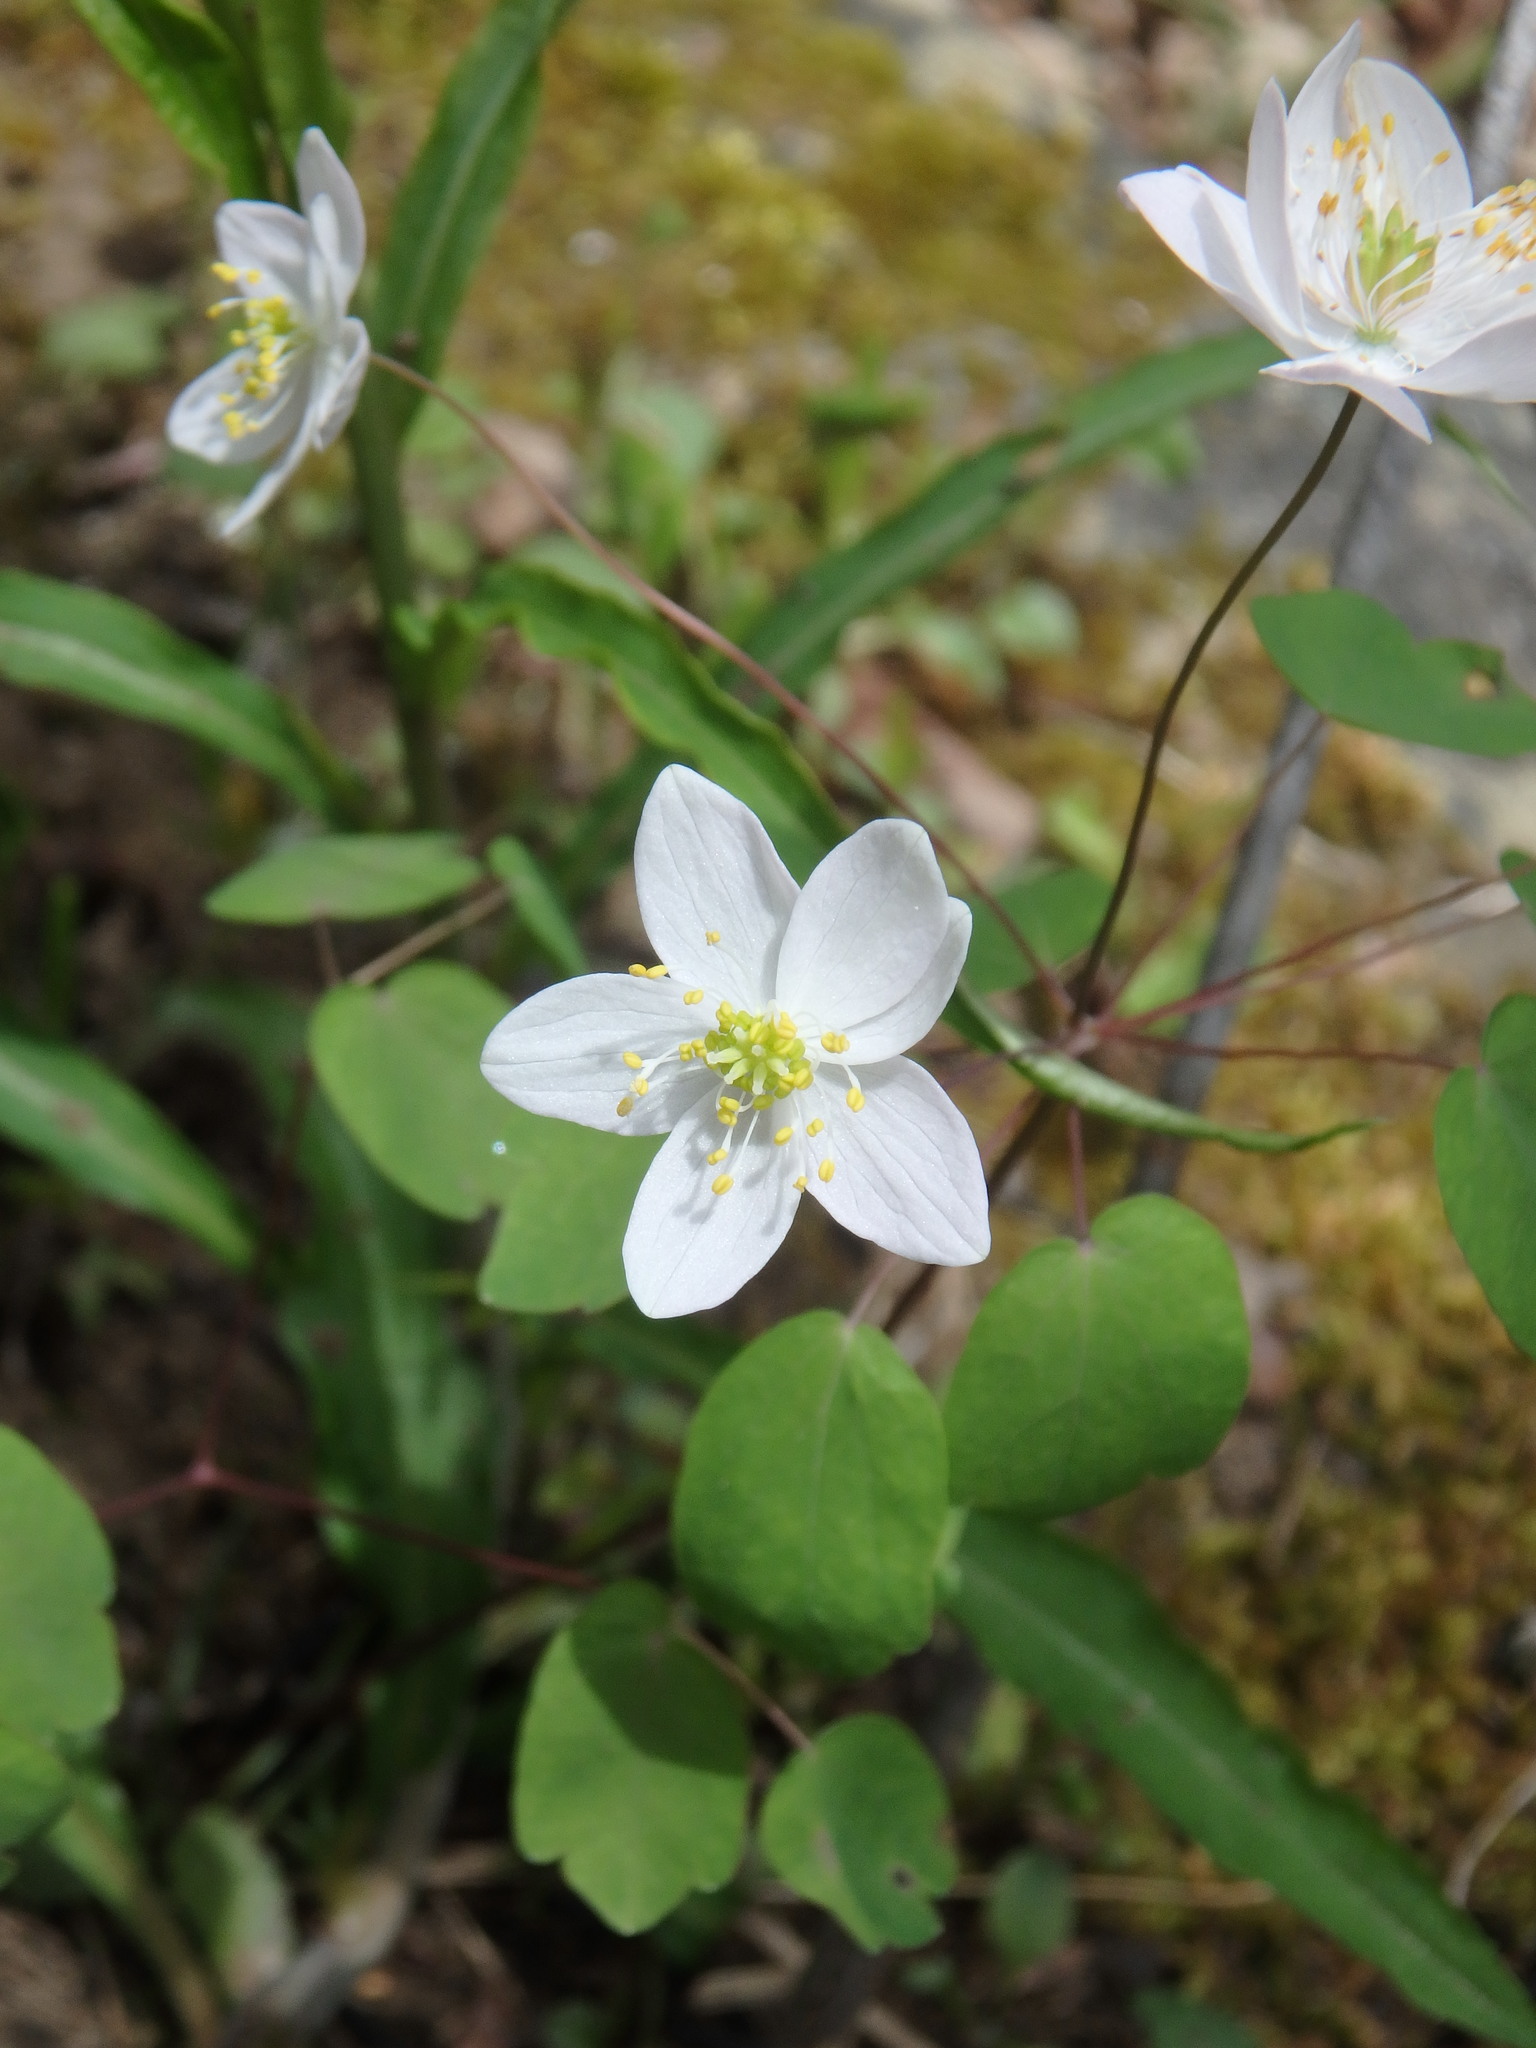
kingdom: Plantae
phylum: Tracheophyta
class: Magnoliopsida
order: Ranunculales
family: Ranunculaceae
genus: Thalictrum
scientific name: Thalictrum thalictroides
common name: Rue-anemone
